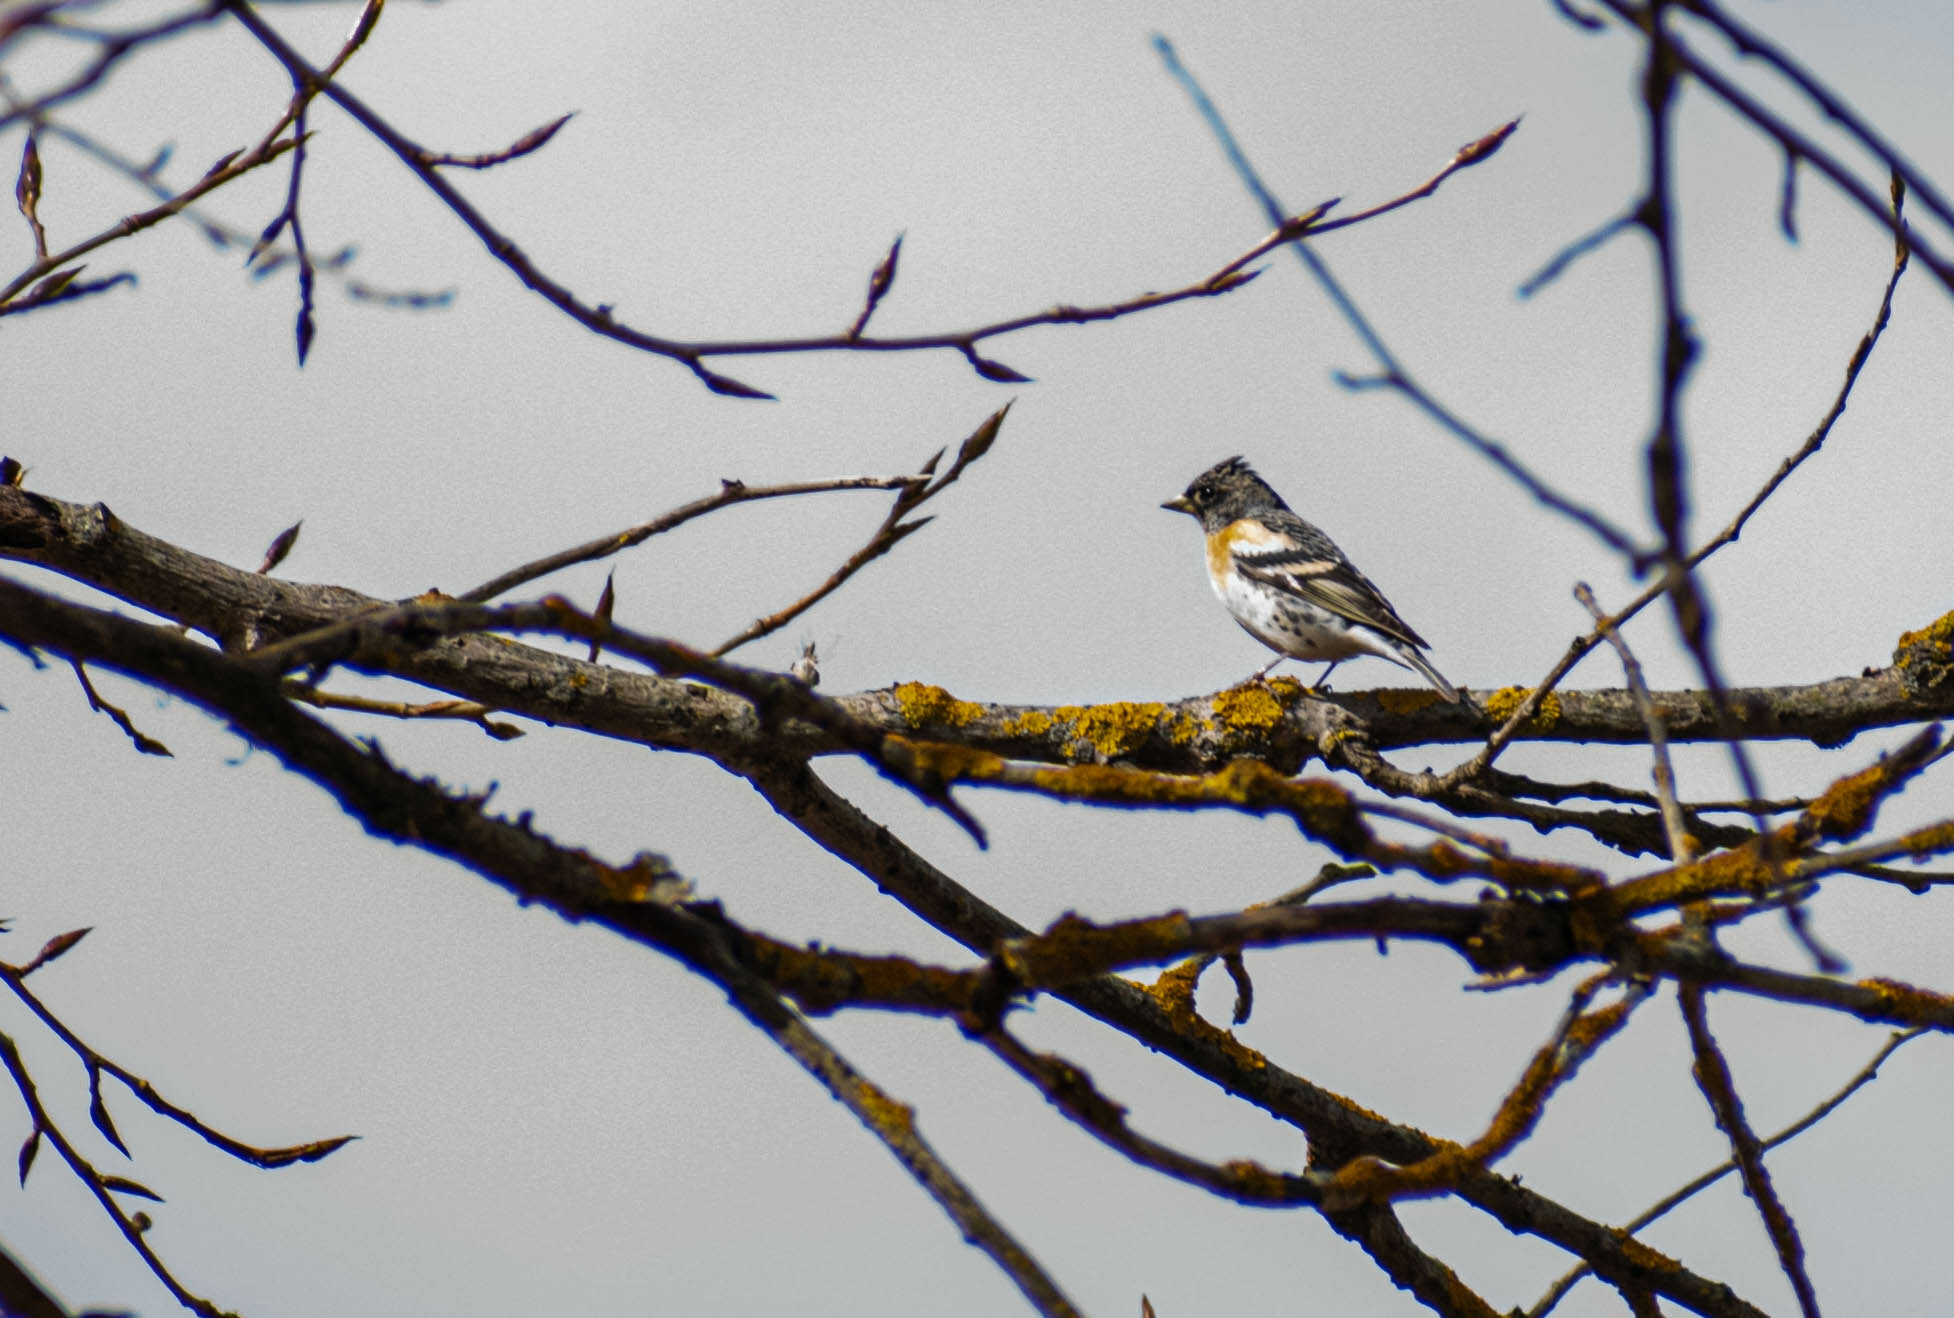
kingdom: Animalia
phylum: Chordata
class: Aves
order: Passeriformes
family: Fringillidae
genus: Fringilla
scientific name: Fringilla montifringilla
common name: Brambling
